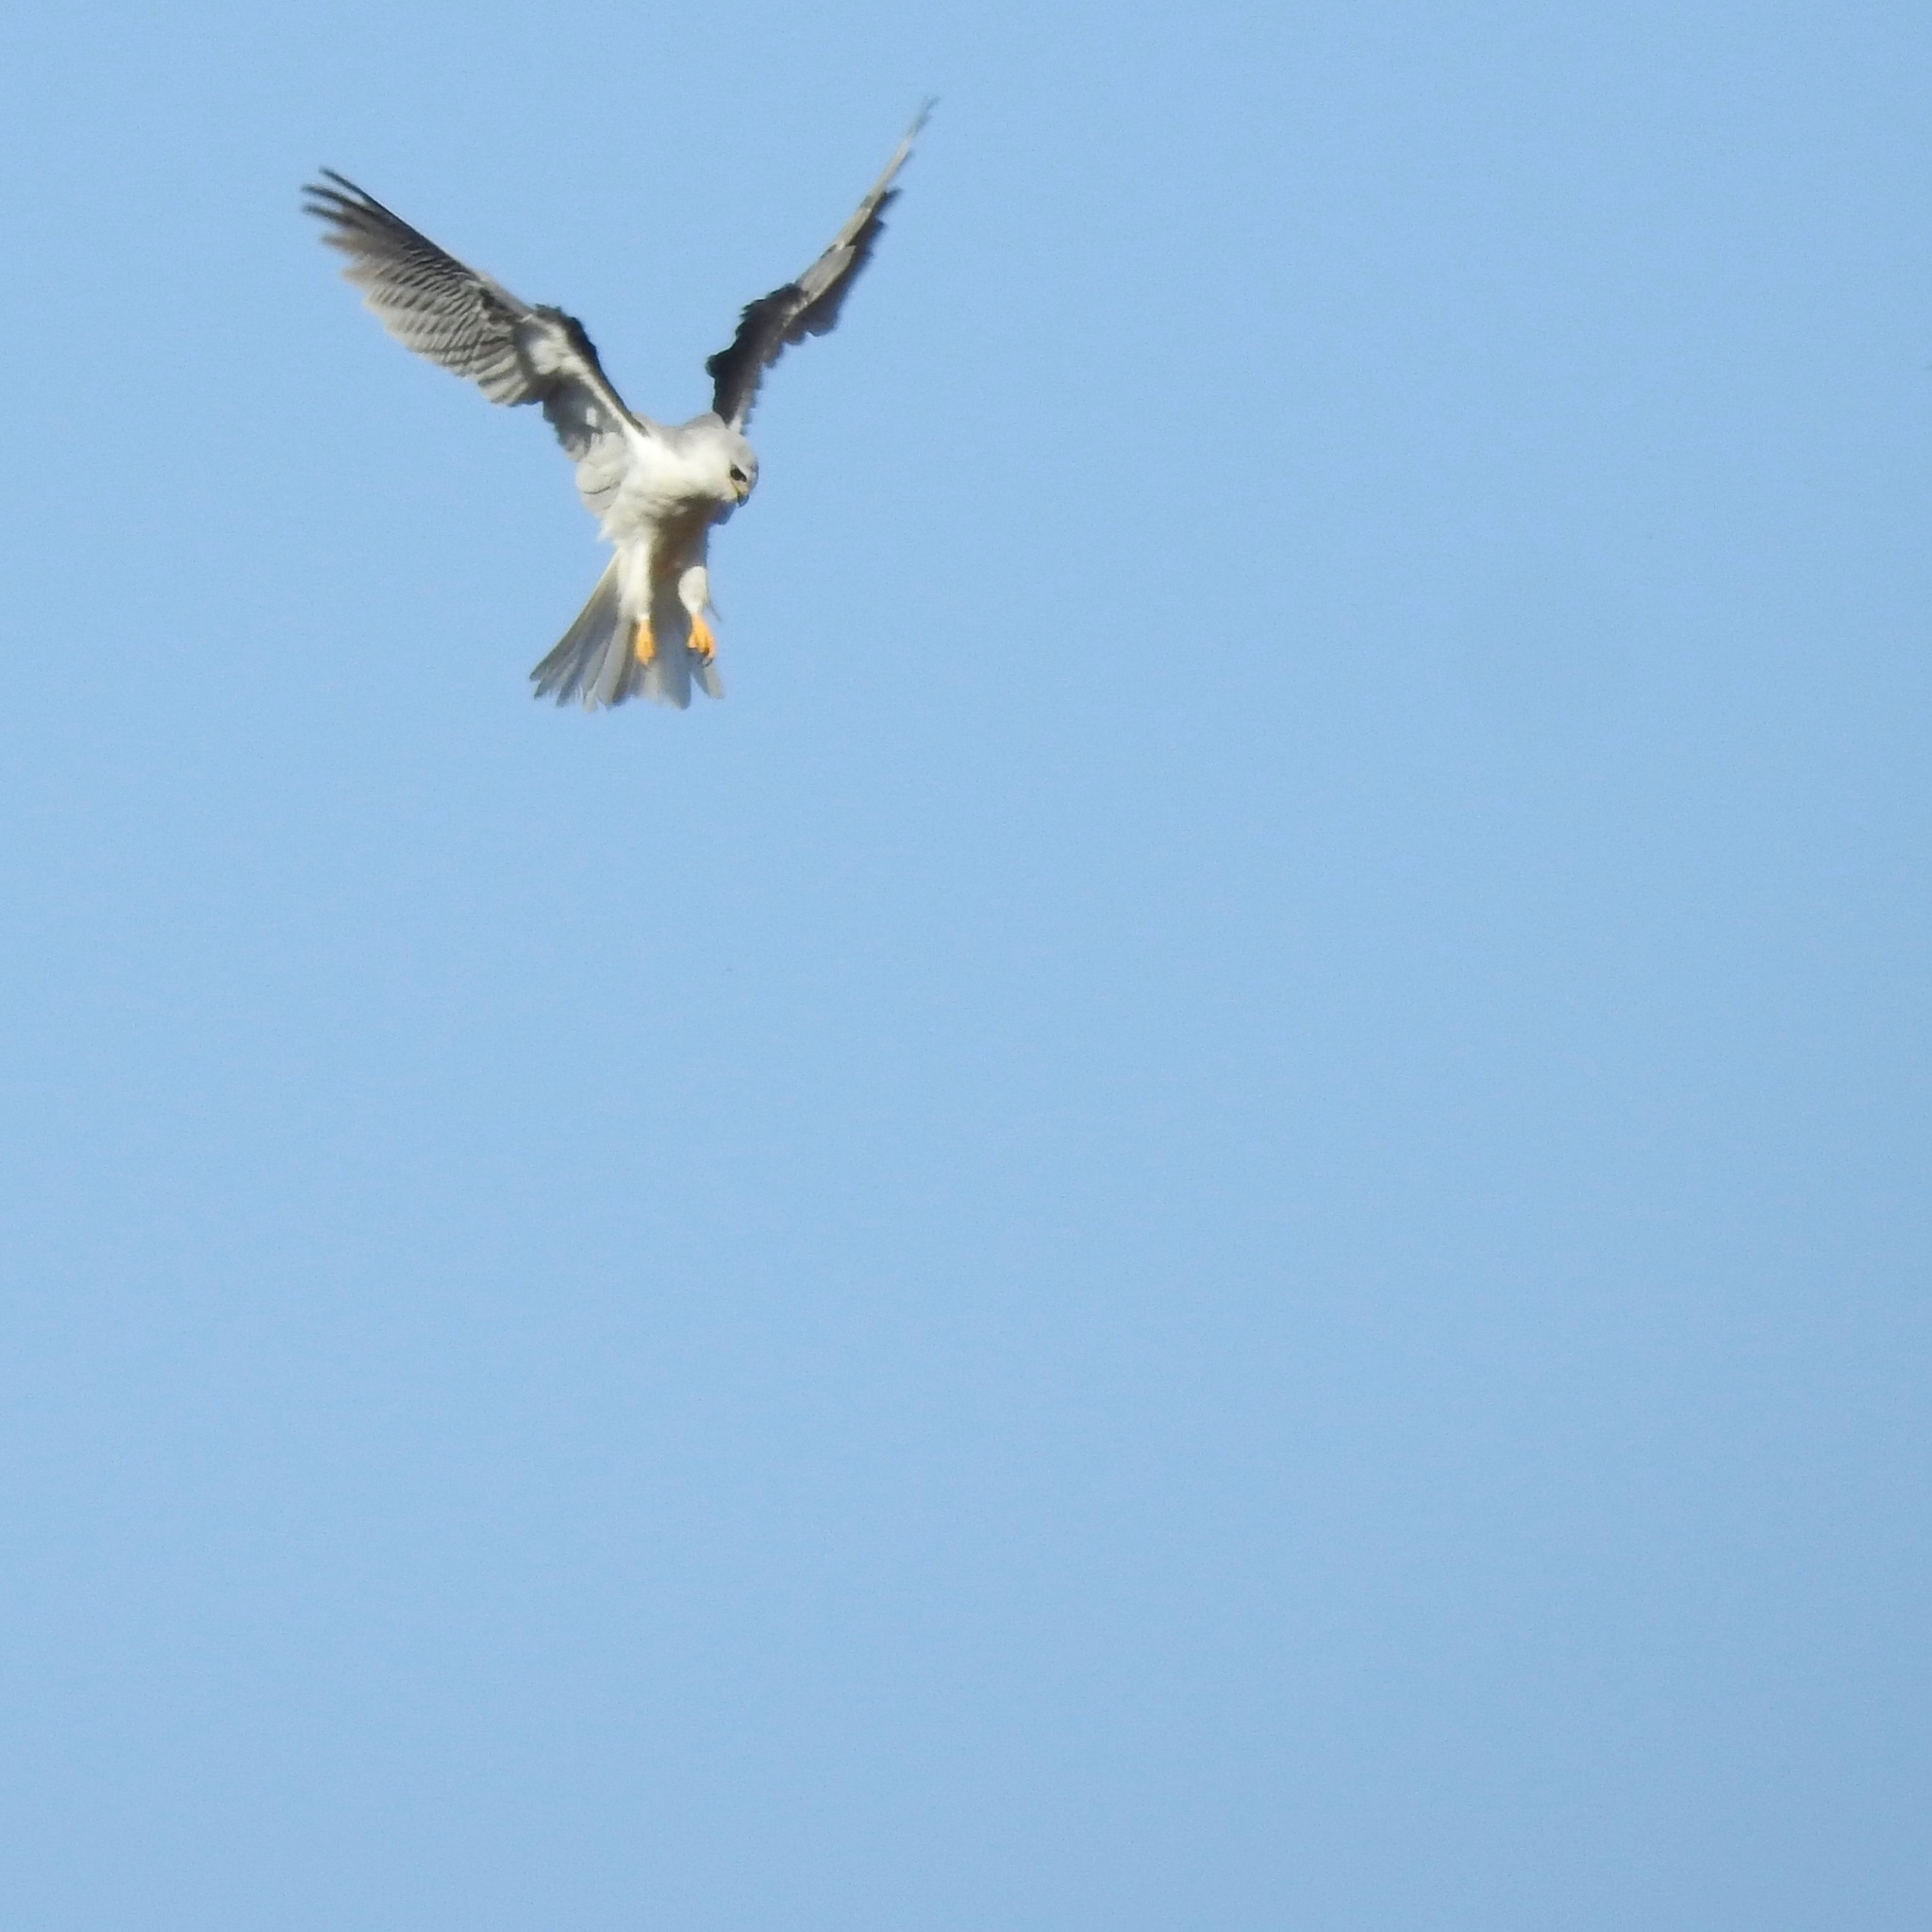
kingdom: Animalia
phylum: Chordata
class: Aves
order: Accipitriformes
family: Accipitridae
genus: Elanus
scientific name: Elanus leucurus
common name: White-tailed kite
